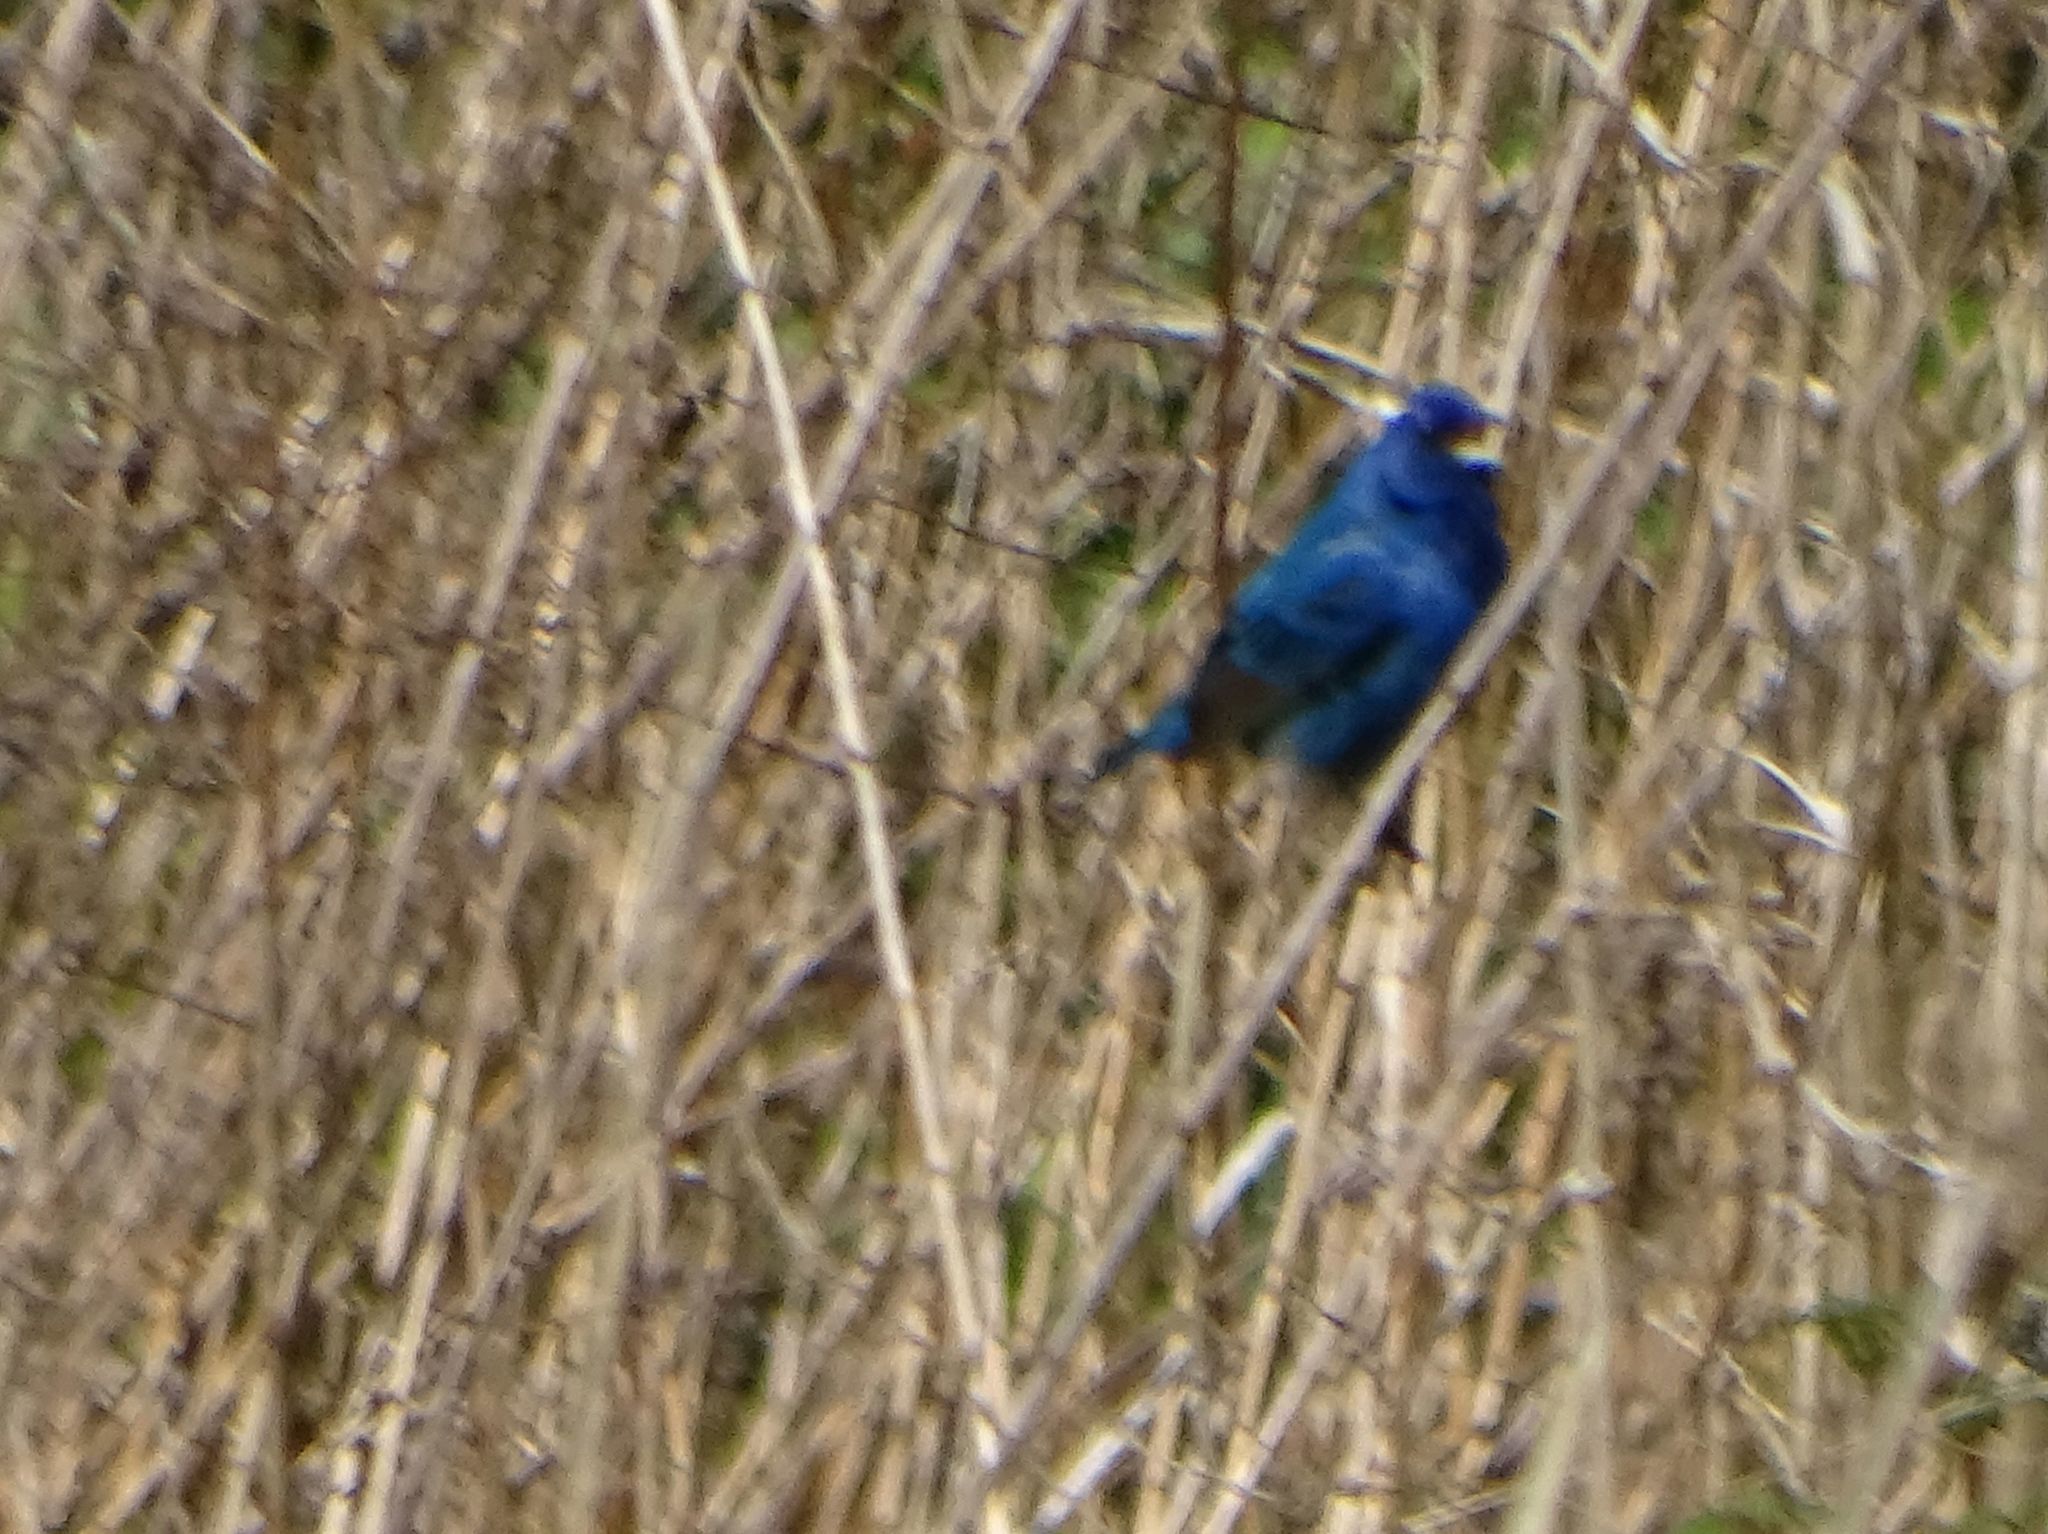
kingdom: Animalia
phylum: Chordata
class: Aves
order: Passeriformes
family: Cardinalidae
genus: Passerina
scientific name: Passerina cyanea
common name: Indigo bunting
